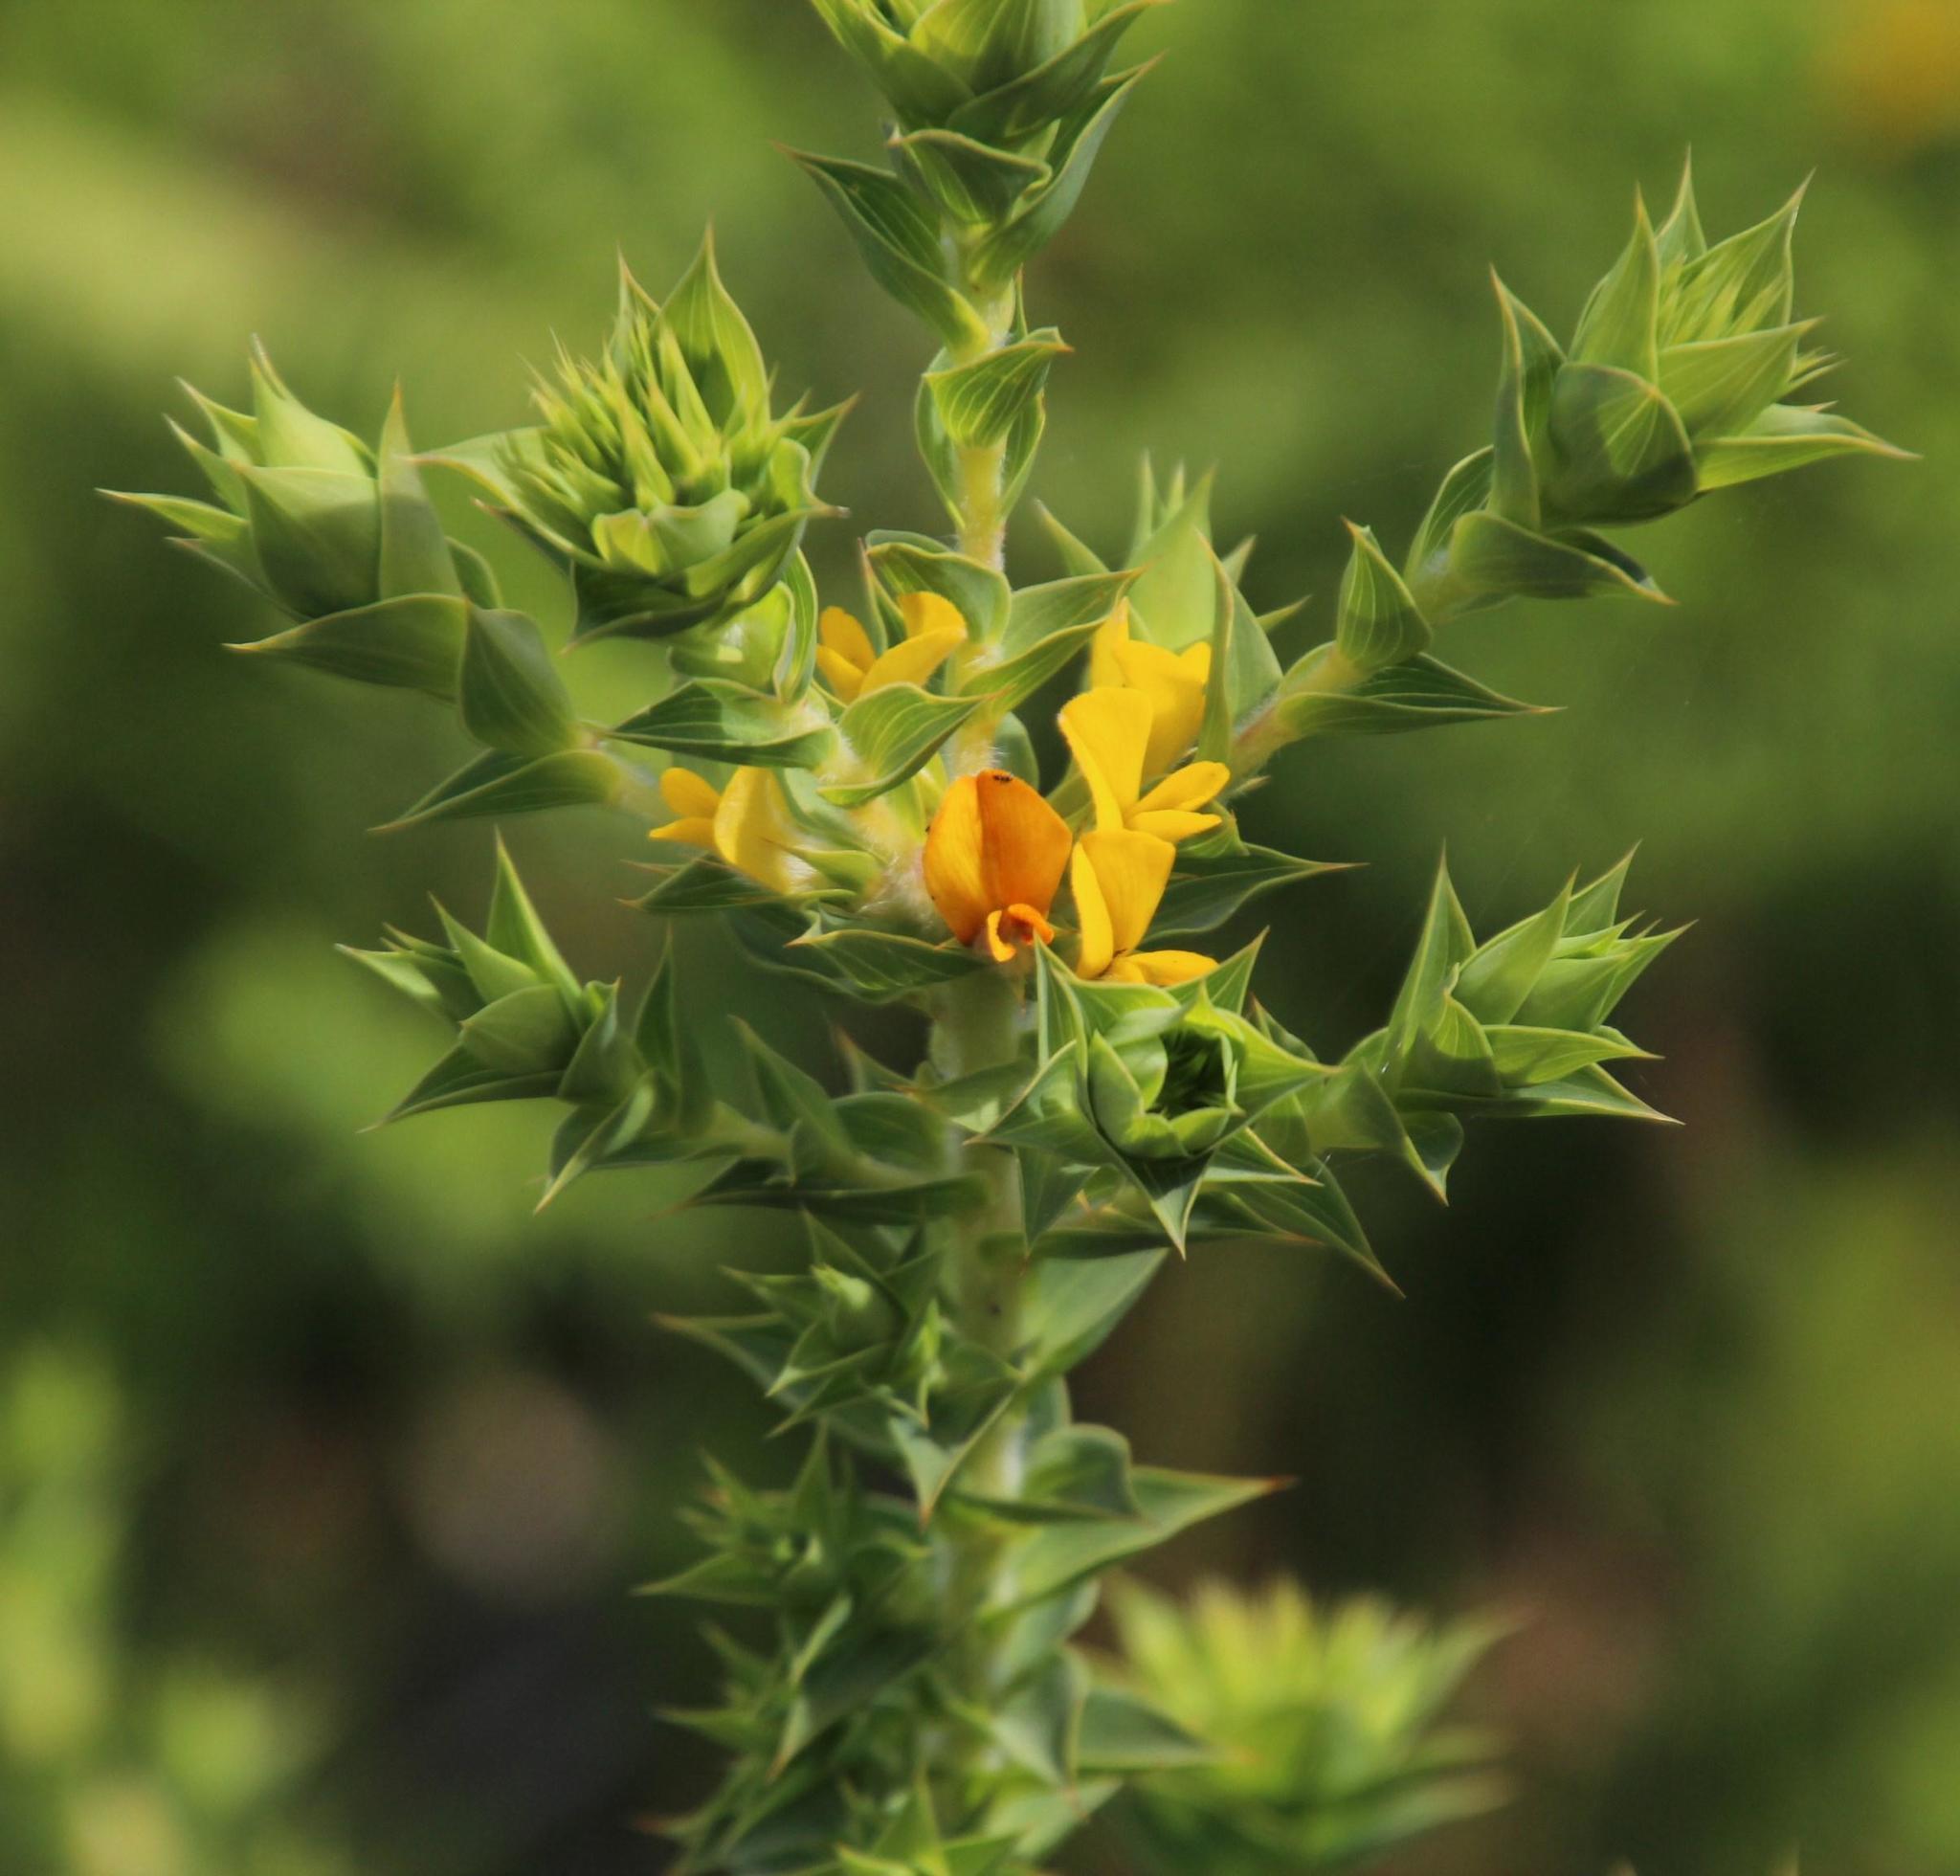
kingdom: Plantae
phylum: Tracheophyta
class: Magnoliopsida
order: Fabales
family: Fabaceae
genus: Aspalathus
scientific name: Aspalathus cordata
